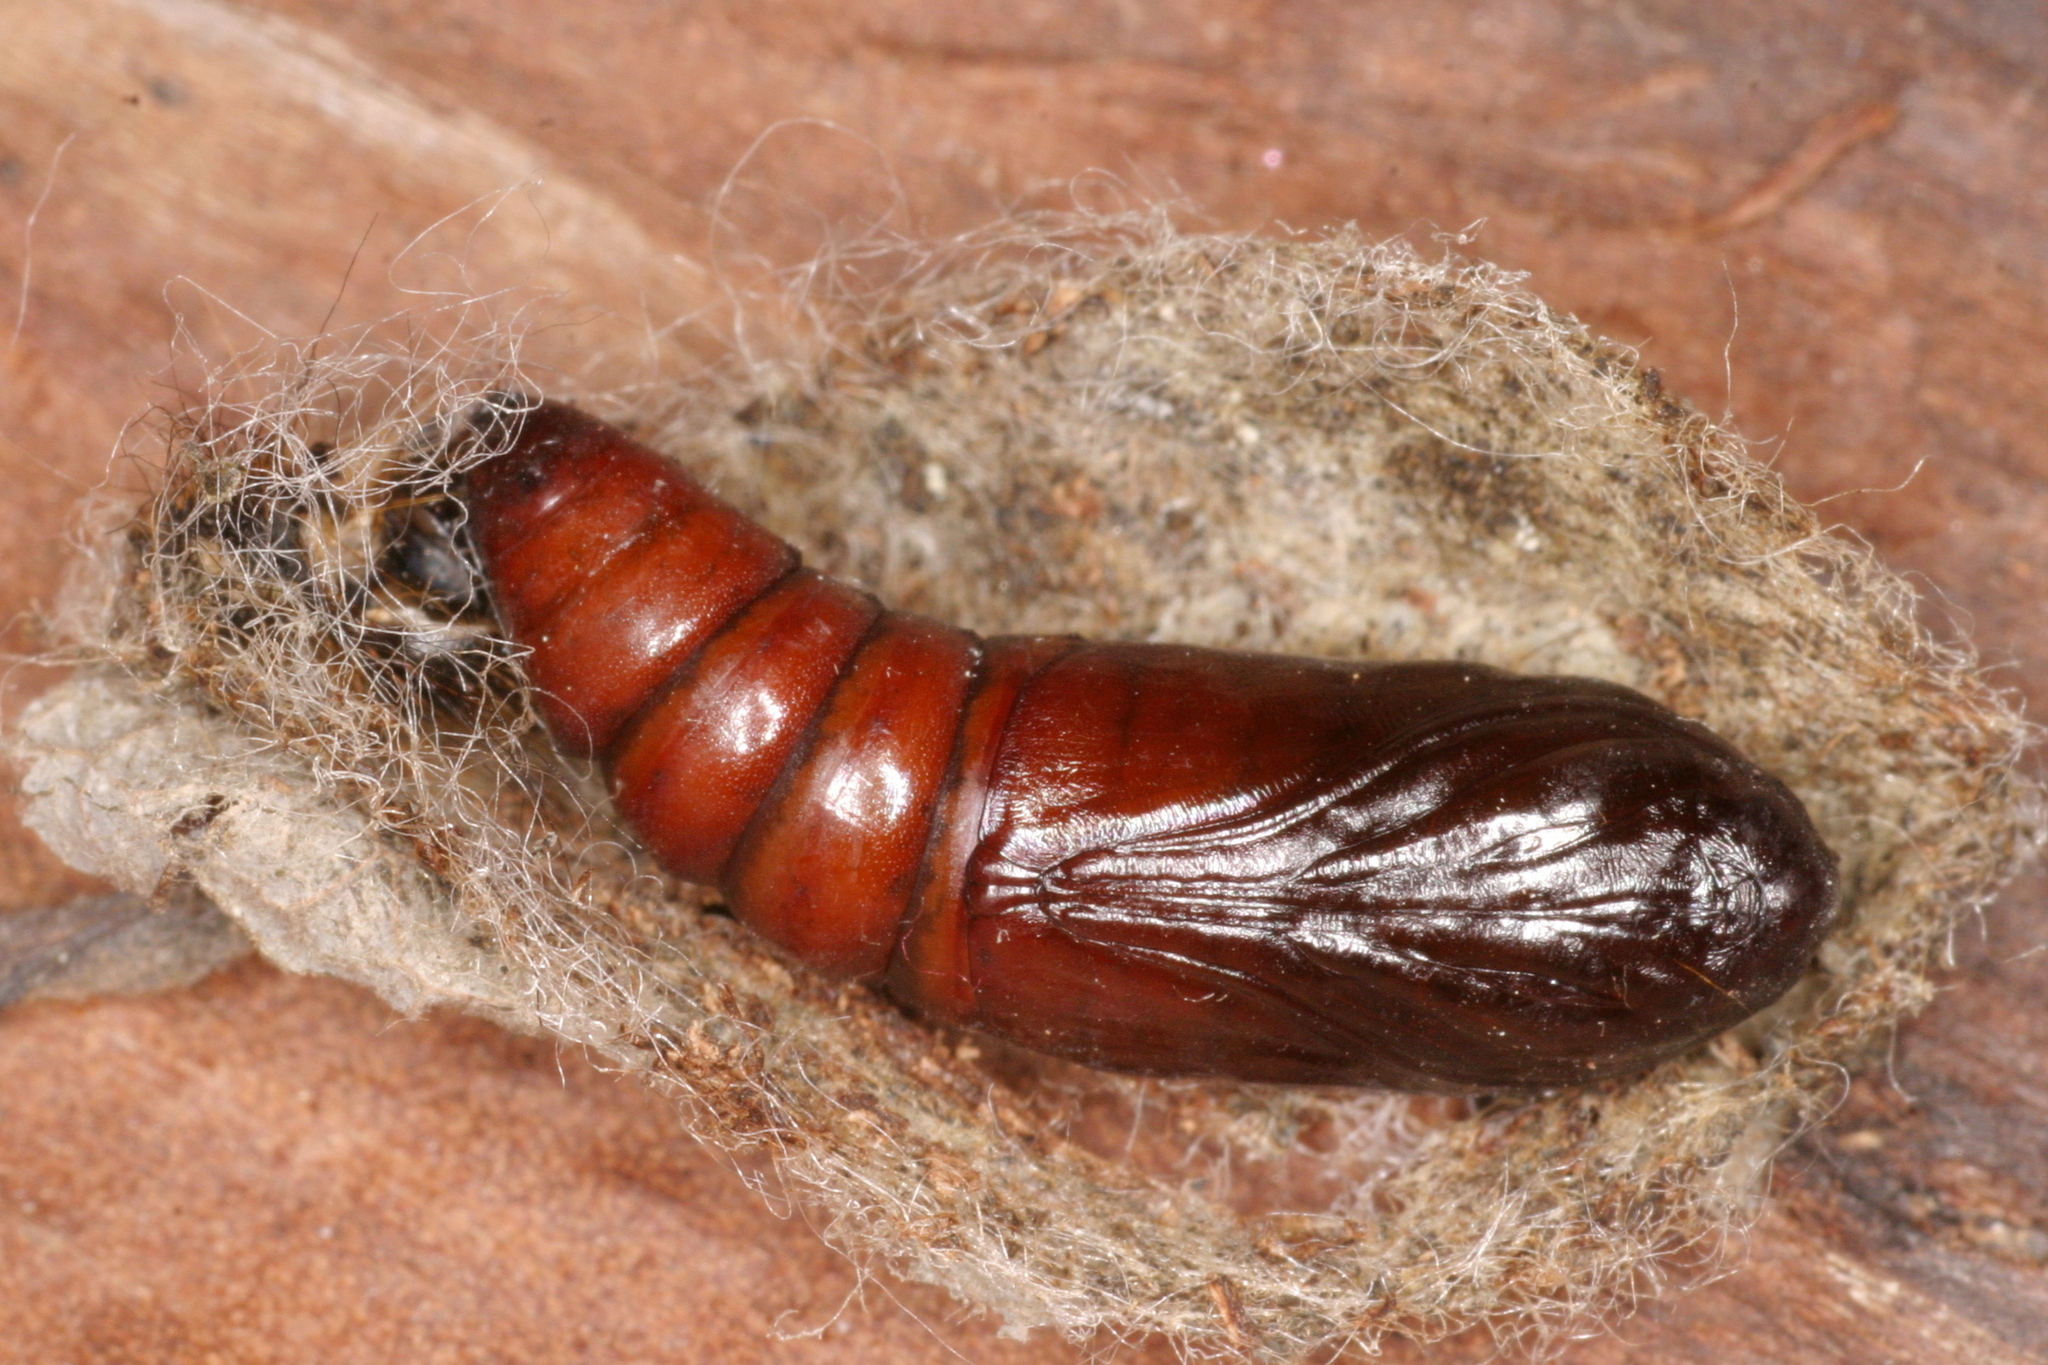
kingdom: Animalia
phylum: Arthropoda
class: Insecta
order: Lepidoptera
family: Noctuidae
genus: Acronicta
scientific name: Acronicta psi
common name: Grey dagger
